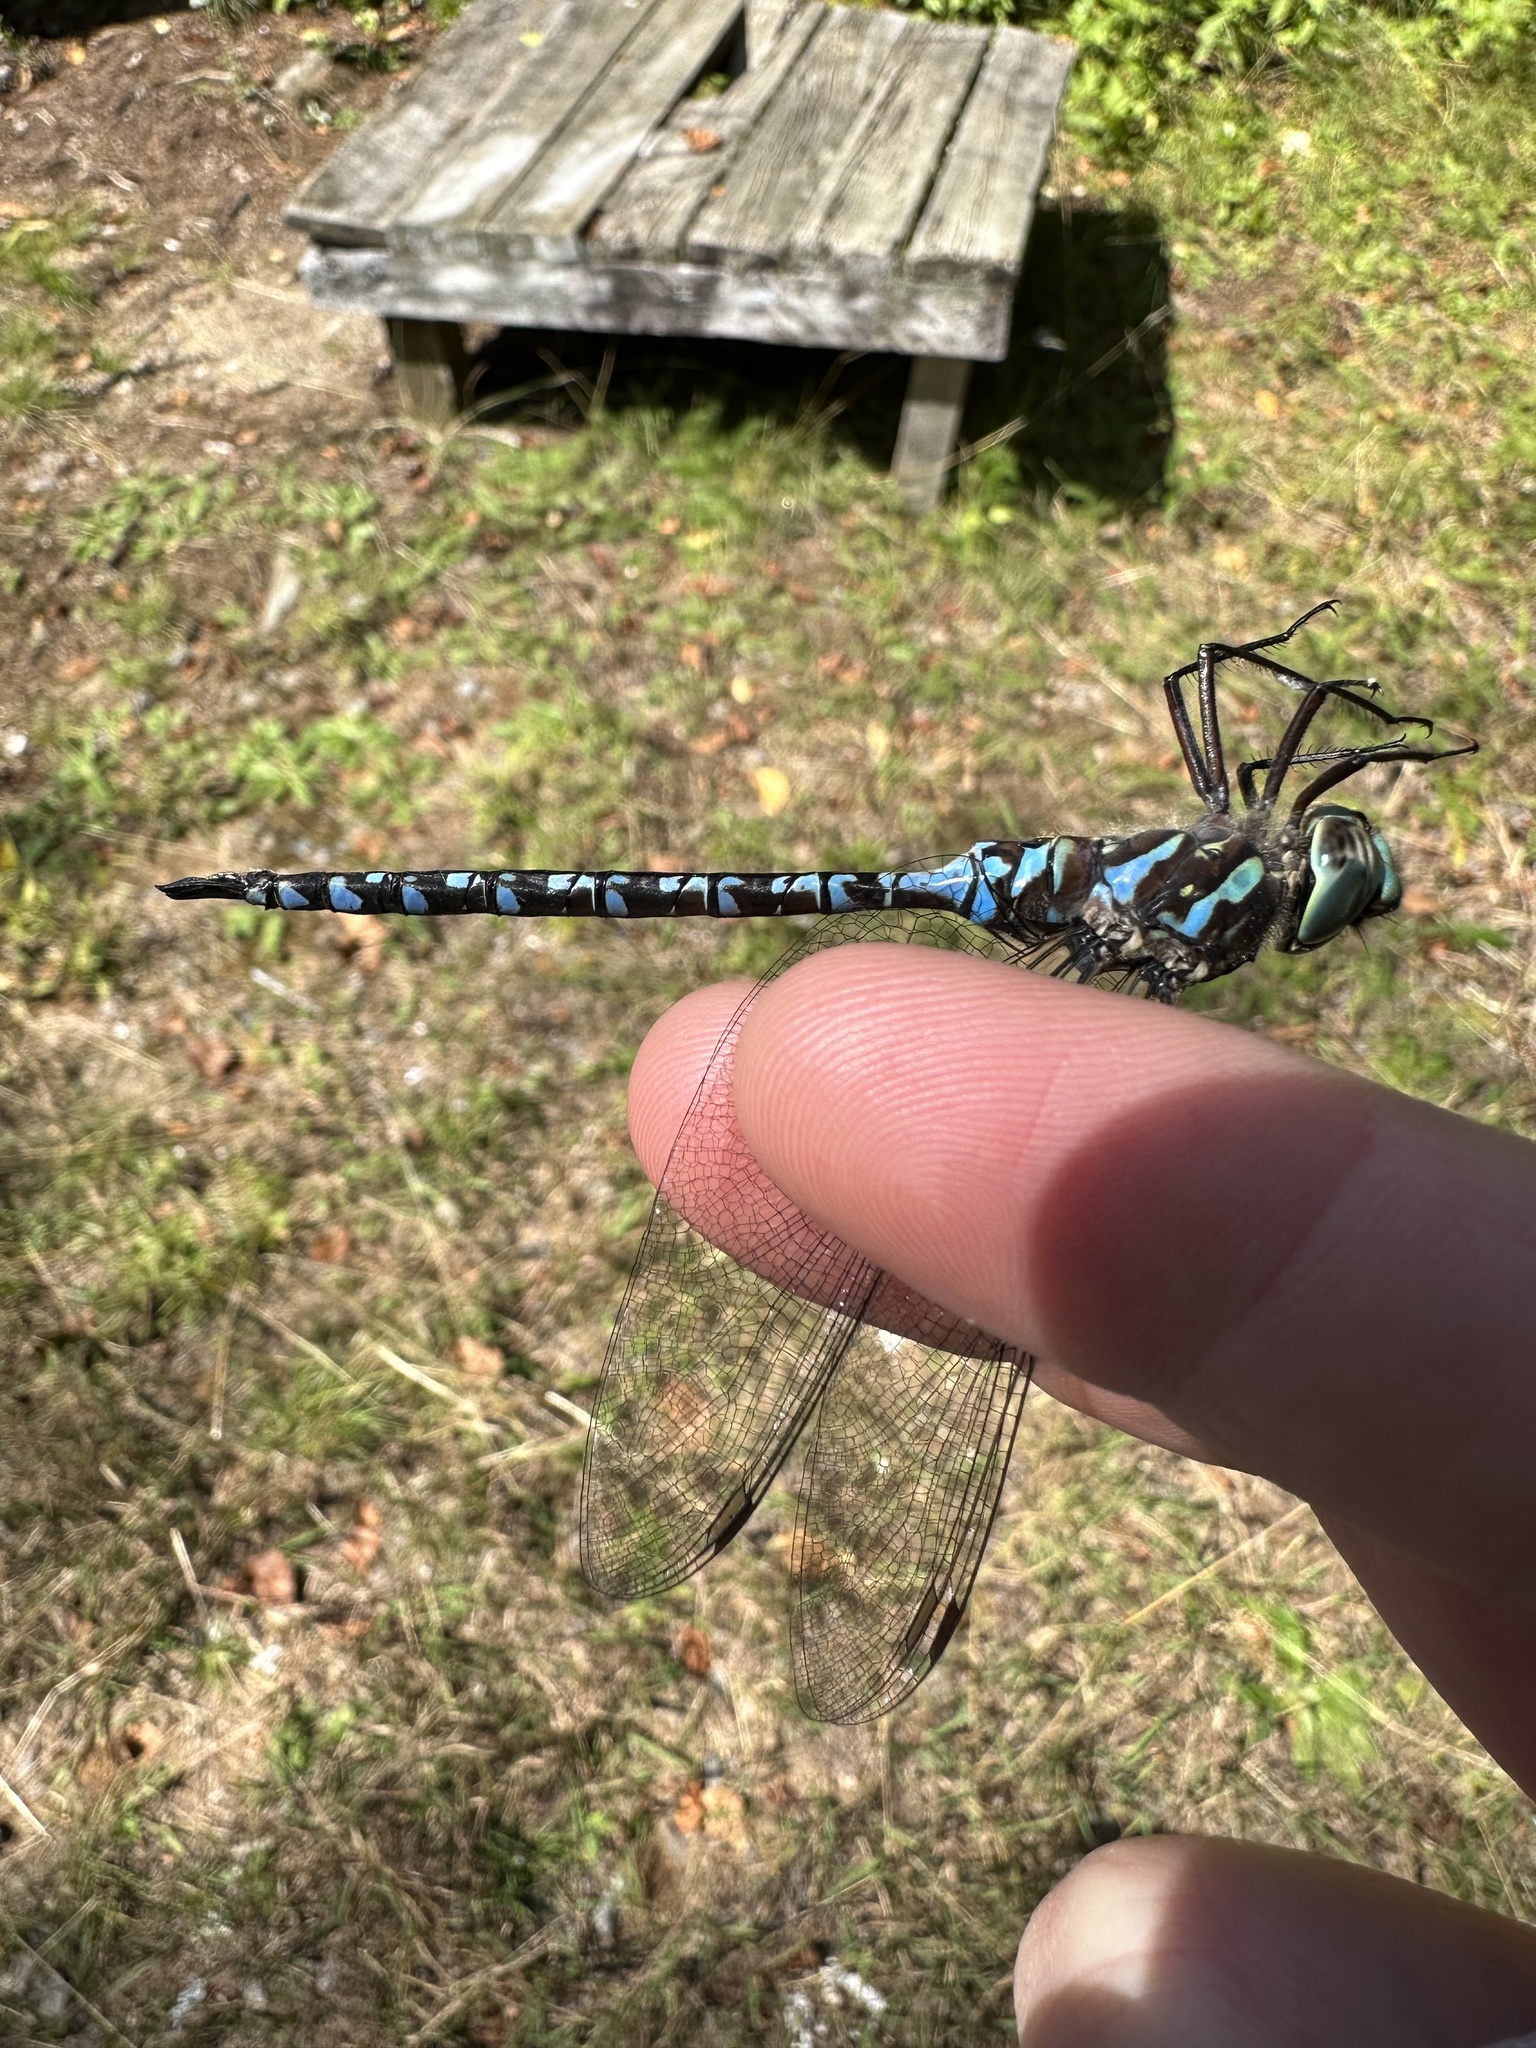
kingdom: Animalia
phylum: Arthropoda
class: Insecta
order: Odonata
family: Aeshnidae
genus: Aeshna
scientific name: Aeshna canadensis
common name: Canada darner
